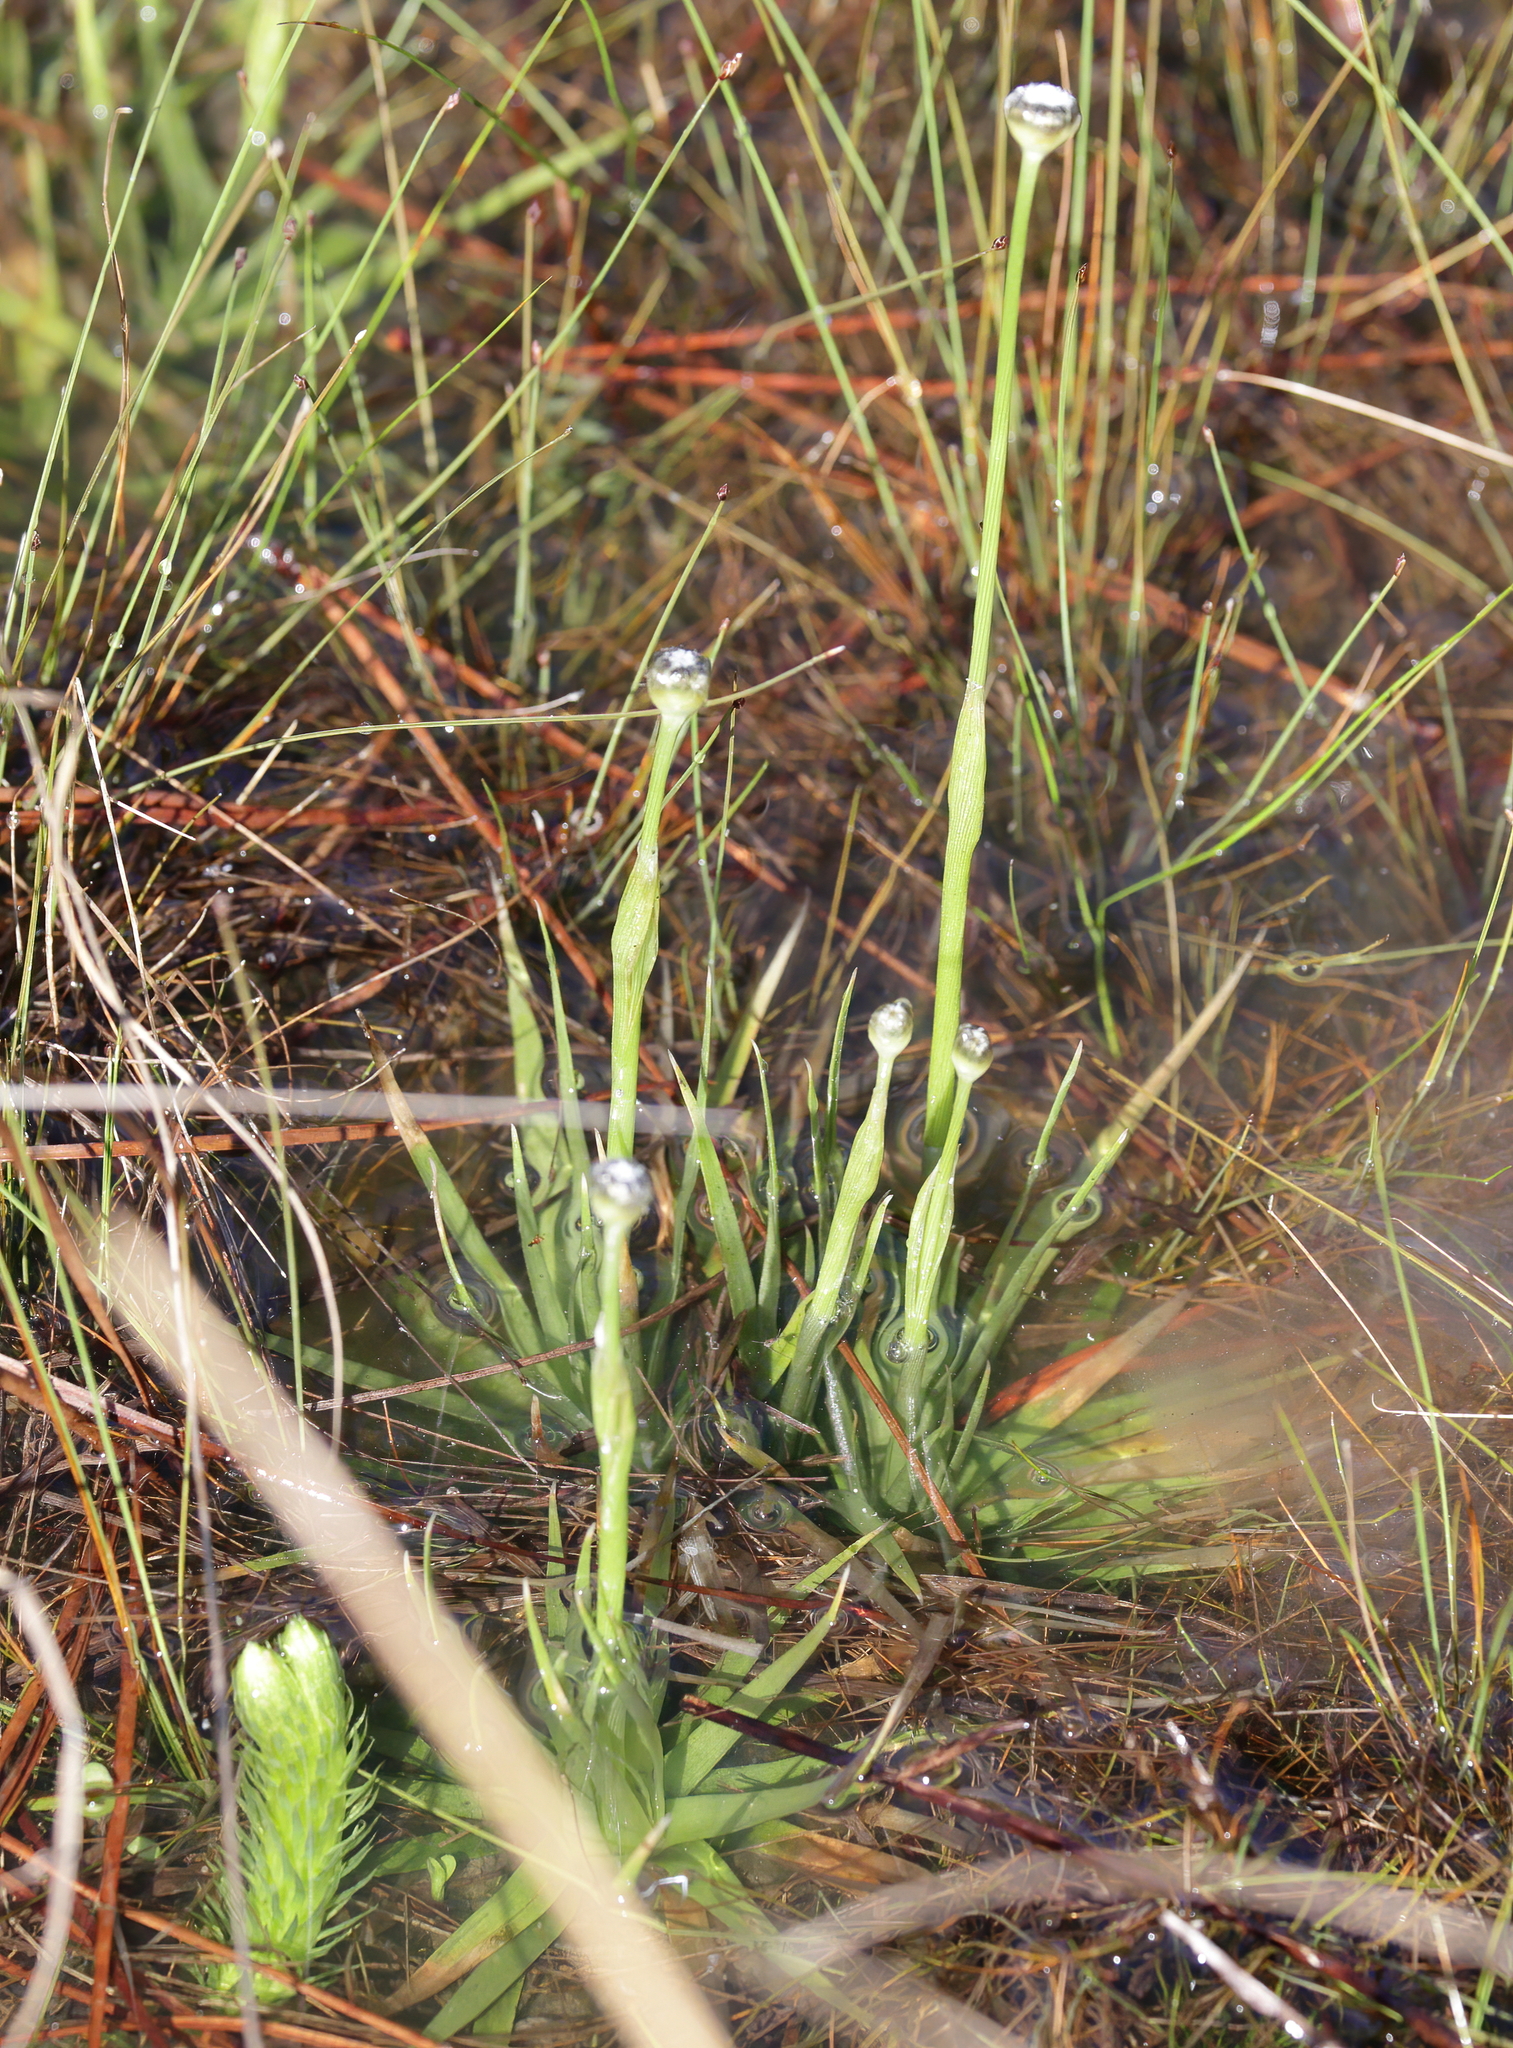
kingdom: Plantae
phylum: Tracheophyta
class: Liliopsida
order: Poales
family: Eriocaulaceae
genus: Eriocaulon
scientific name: Eriocaulon compressum
